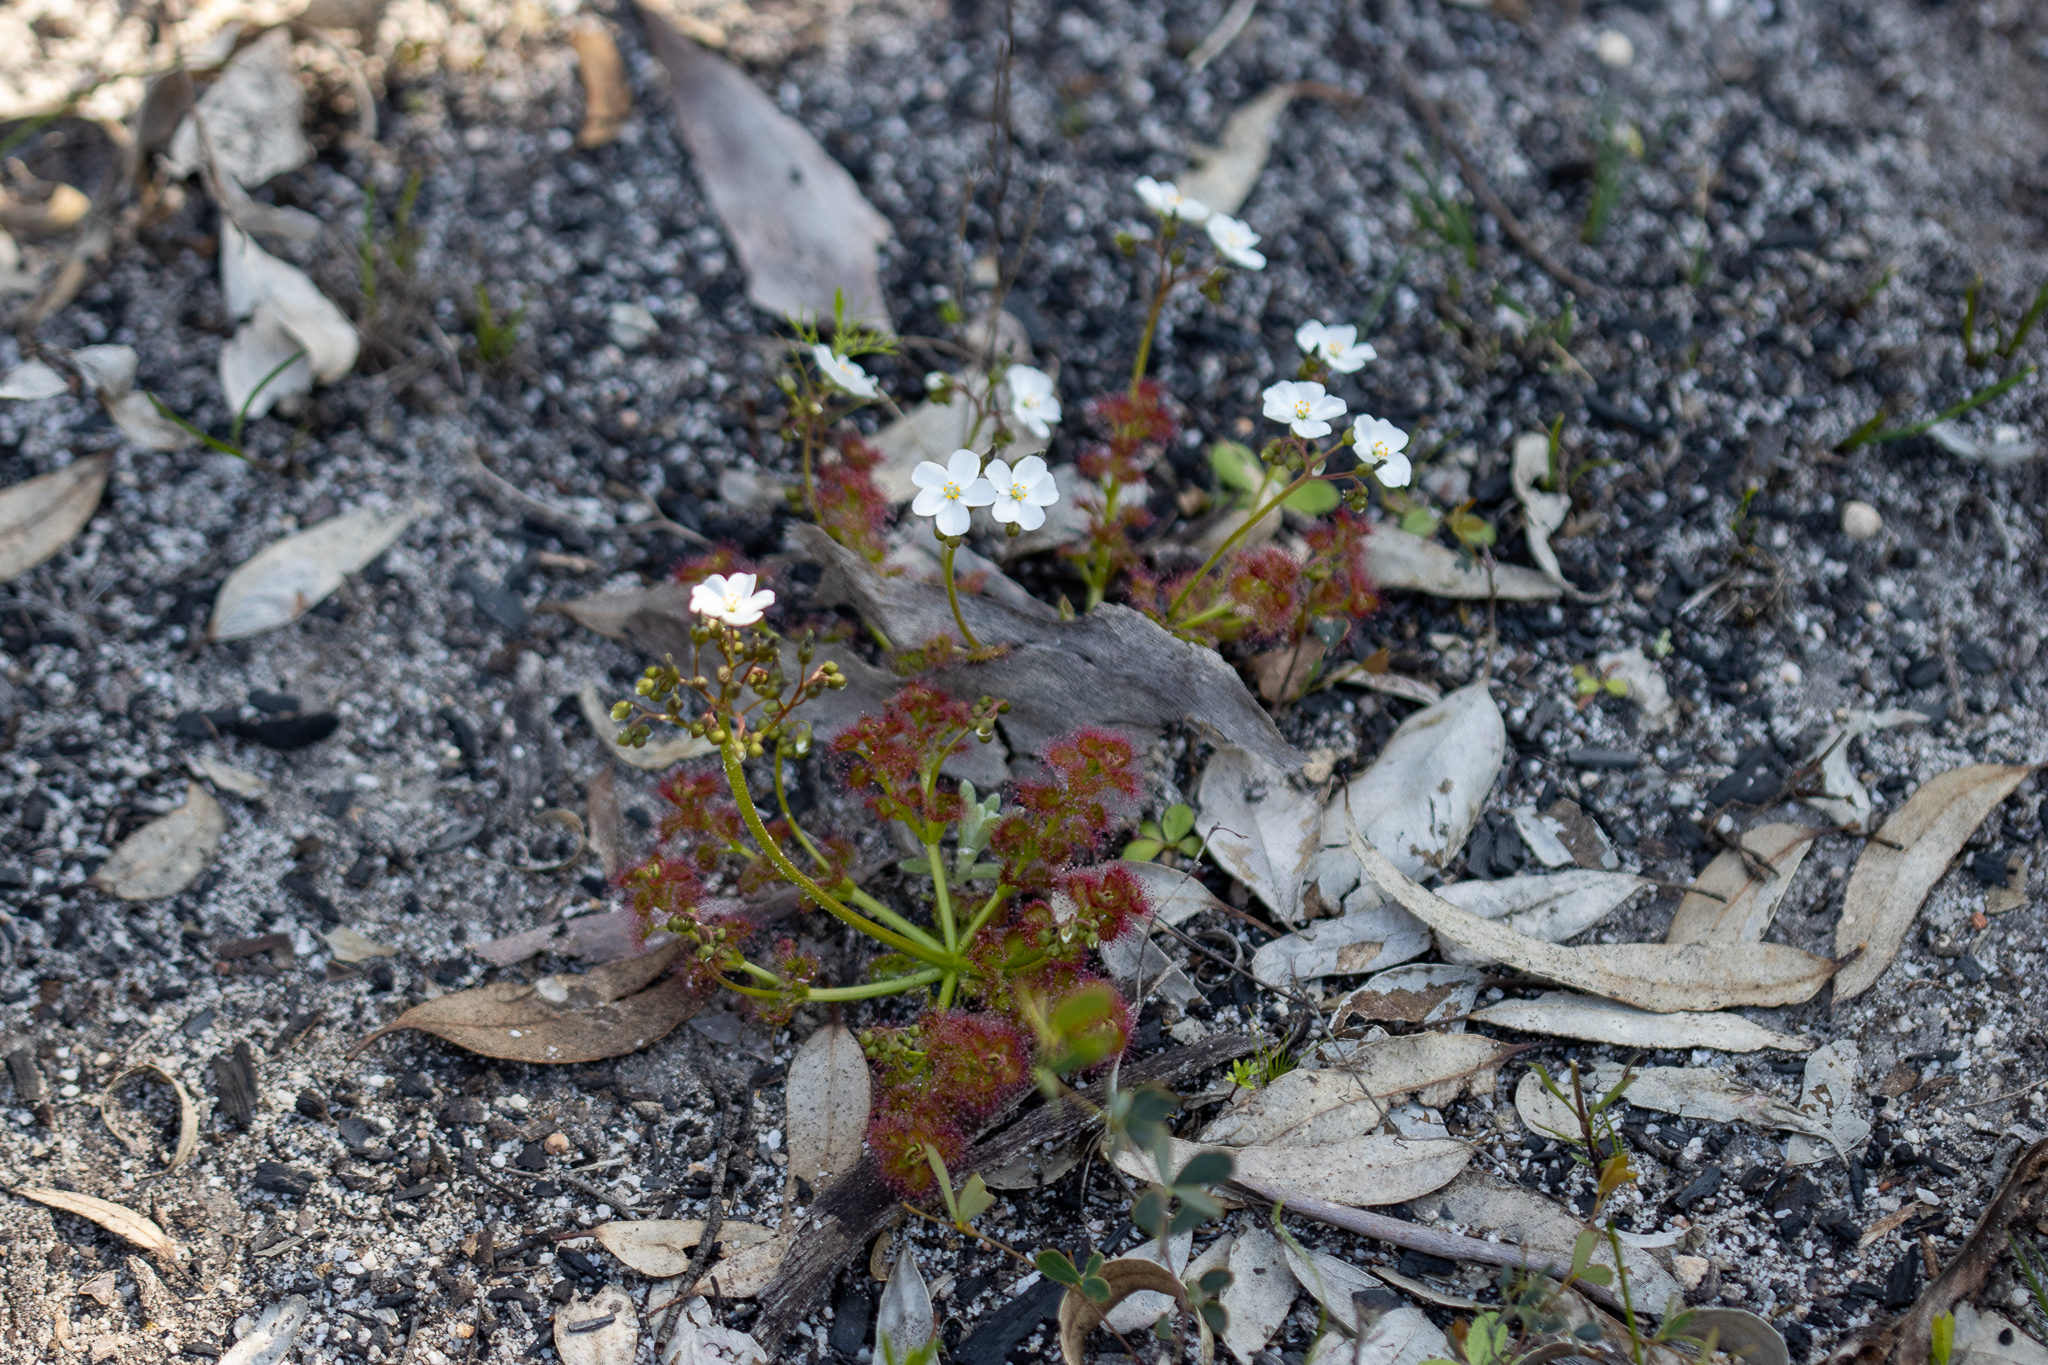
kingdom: Plantae
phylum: Tracheophyta
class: Magnoliopsida
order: Caryophyllales
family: Droseraceae
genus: Drosera
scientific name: Drosera stolonifera
